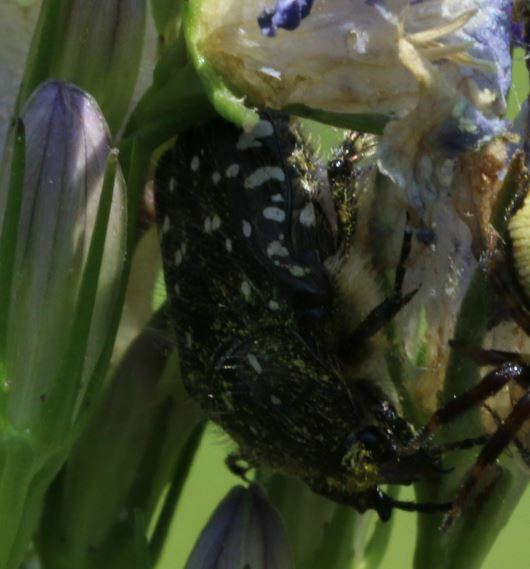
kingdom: Animalia
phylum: Arthropoda
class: Insecta
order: Coleoptera
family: Scarabaeidae
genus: Oxythyrea
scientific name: Oxythyrea funesta
